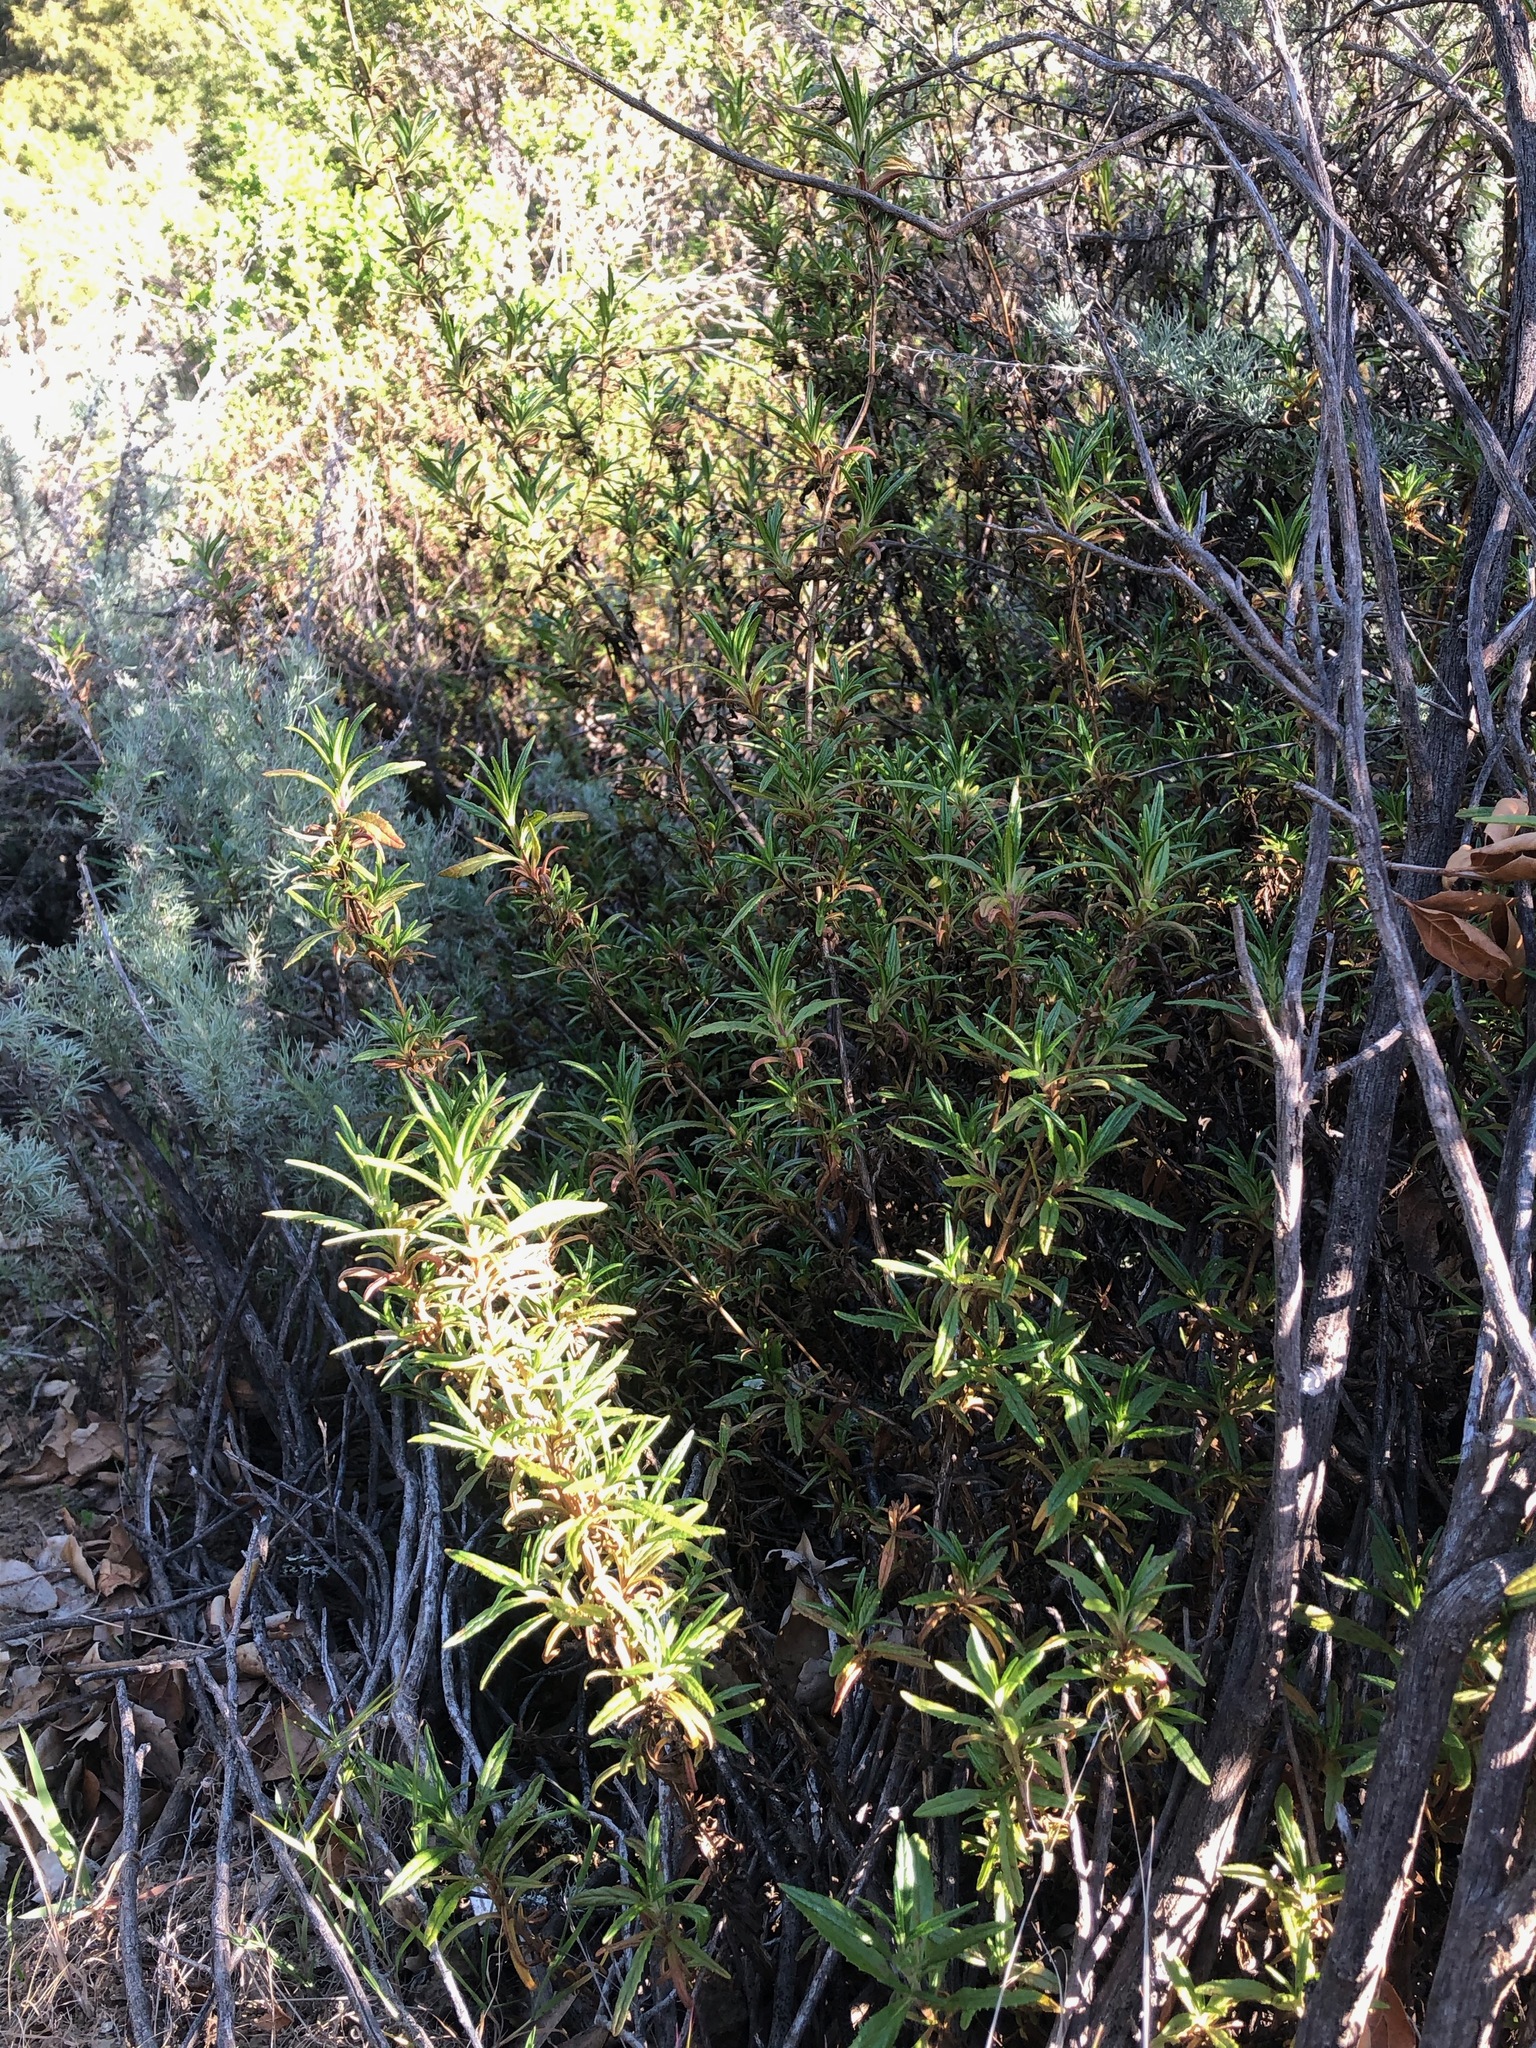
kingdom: Plantae
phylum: Tracheophyta
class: Magnoliopsida
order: Lamiales
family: Phrymaceae
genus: Diplacus
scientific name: Diplacus aurantiacus
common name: Bush monkey-flower
